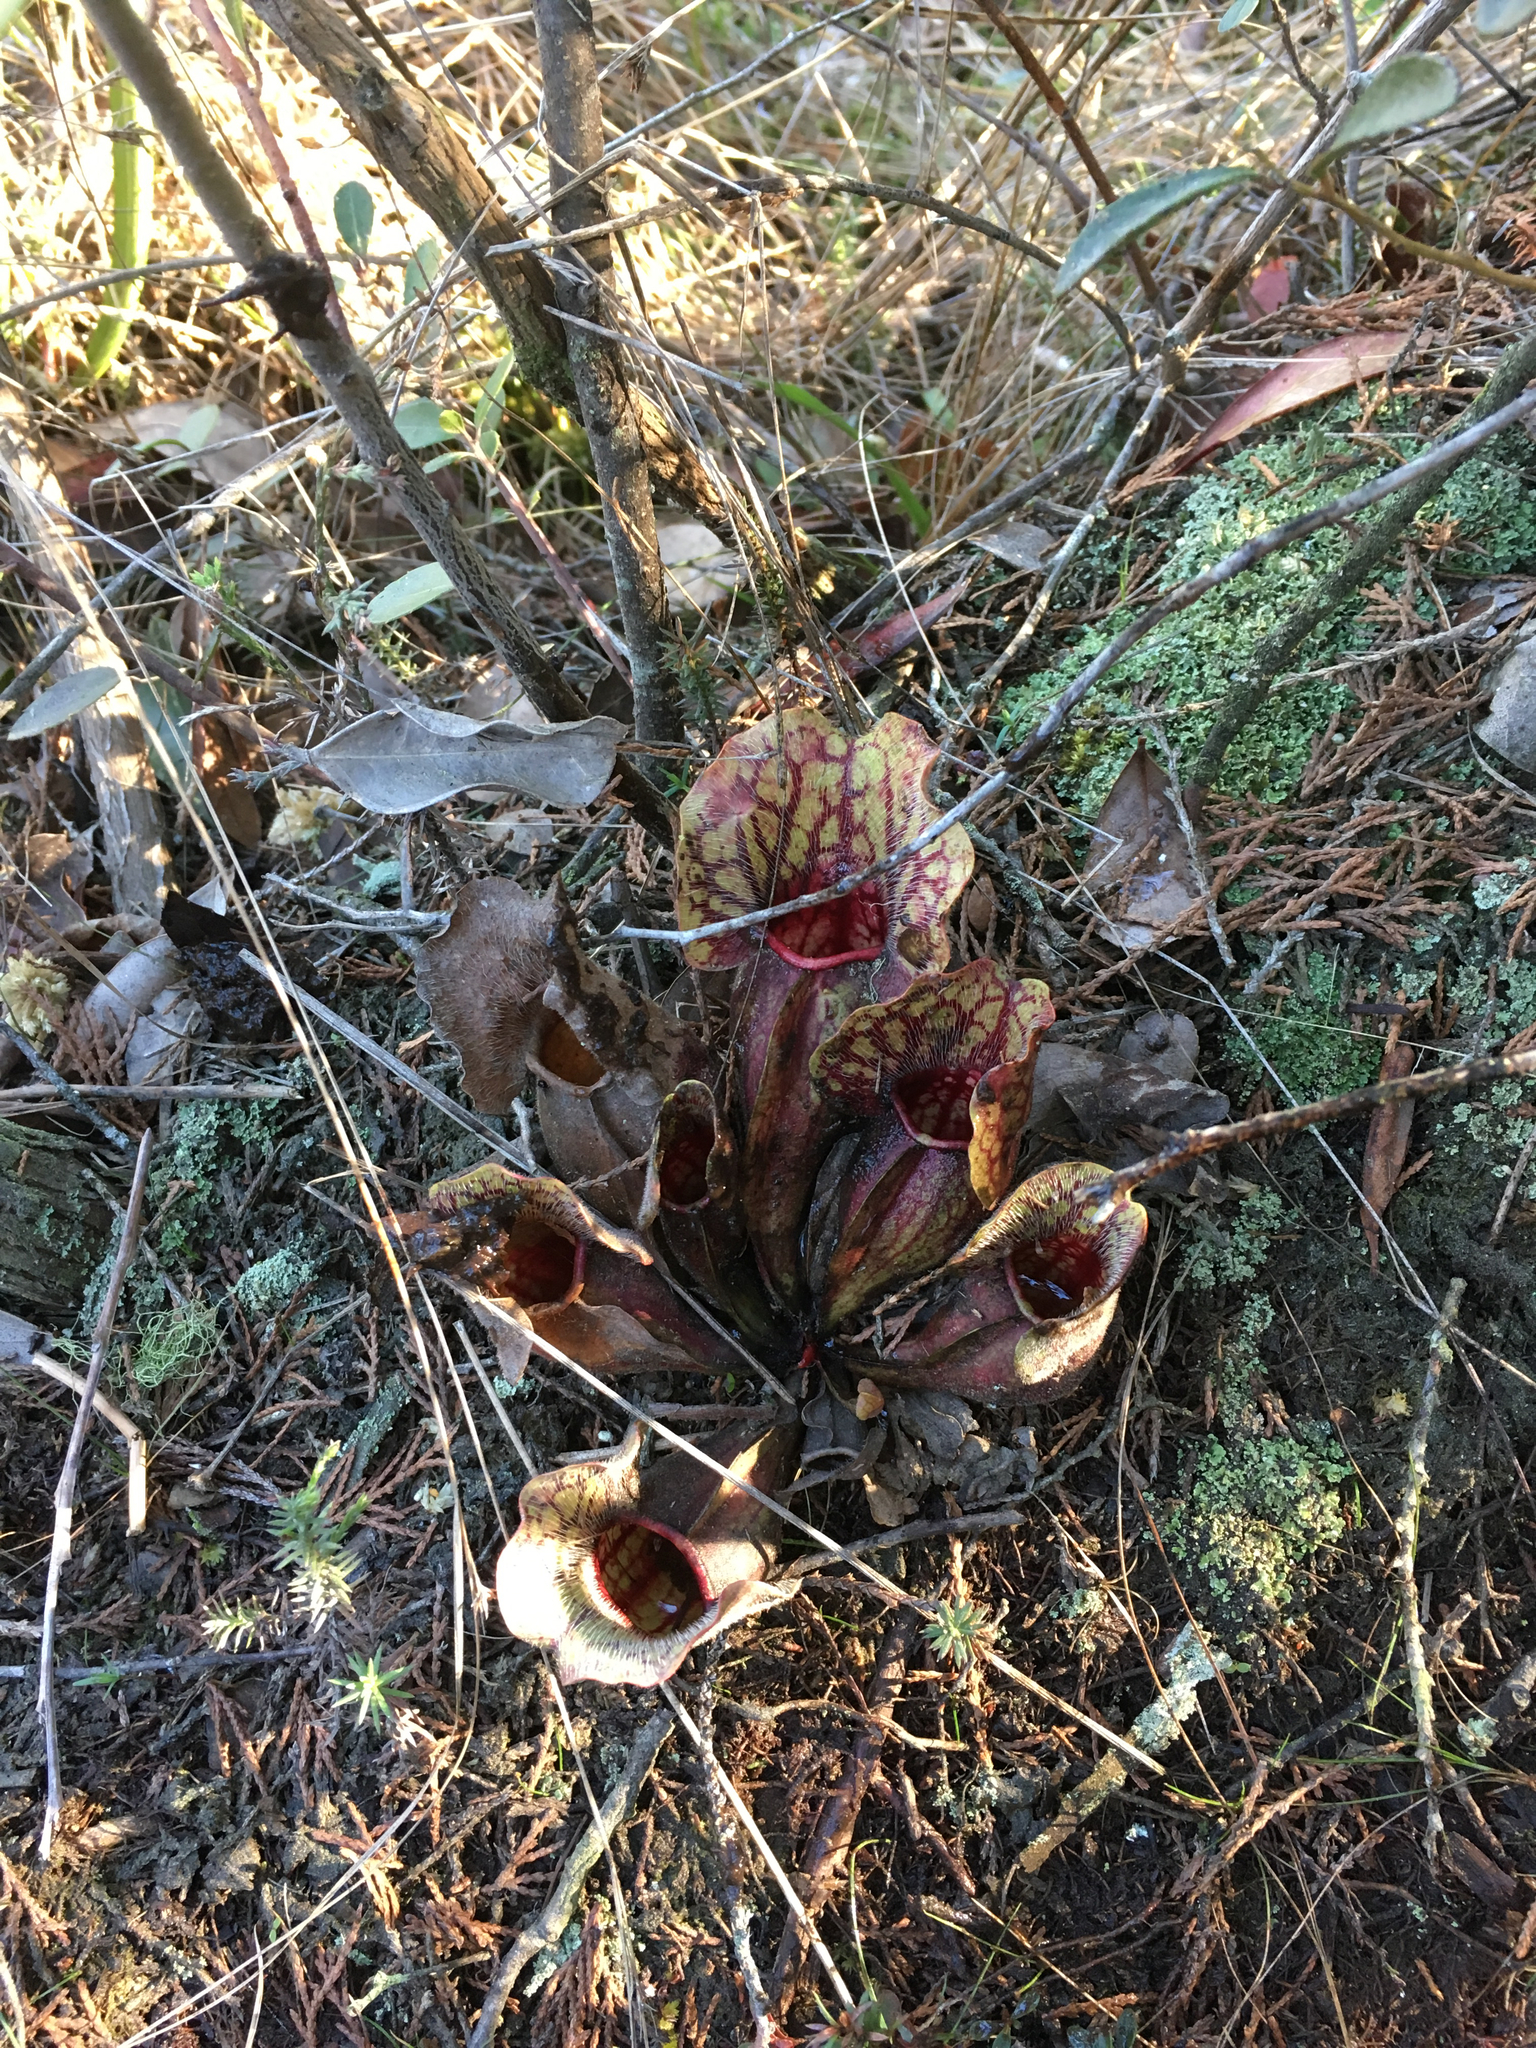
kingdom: Plantae
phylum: Tracheophyta
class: Magnoliopsida
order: Ericales
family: Sarraceniaceae
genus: Sarracenia
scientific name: Sarracenia purpurea
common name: Pitcherplant
